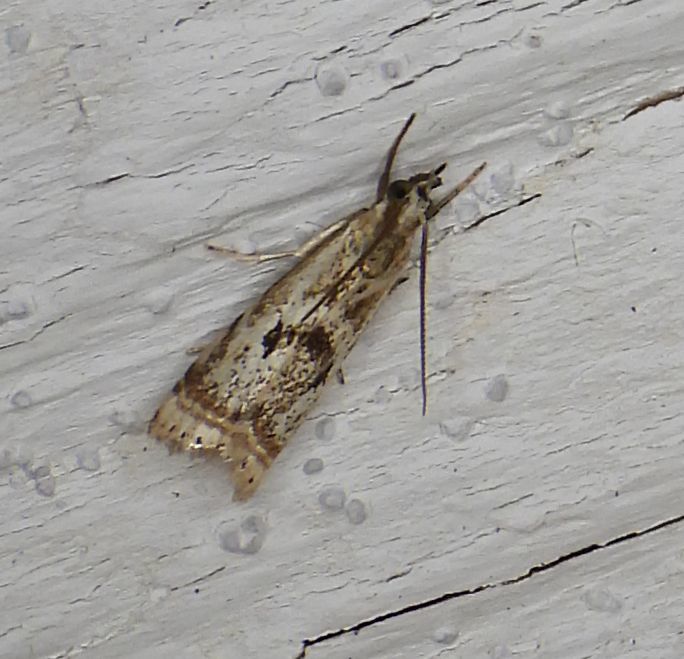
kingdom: Animalia
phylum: Arthropoda
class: Insecta
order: Lepidoptera
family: Crambidae
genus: Microcrambus
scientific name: Microcrambus elegans
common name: Elegant grass-veneer
